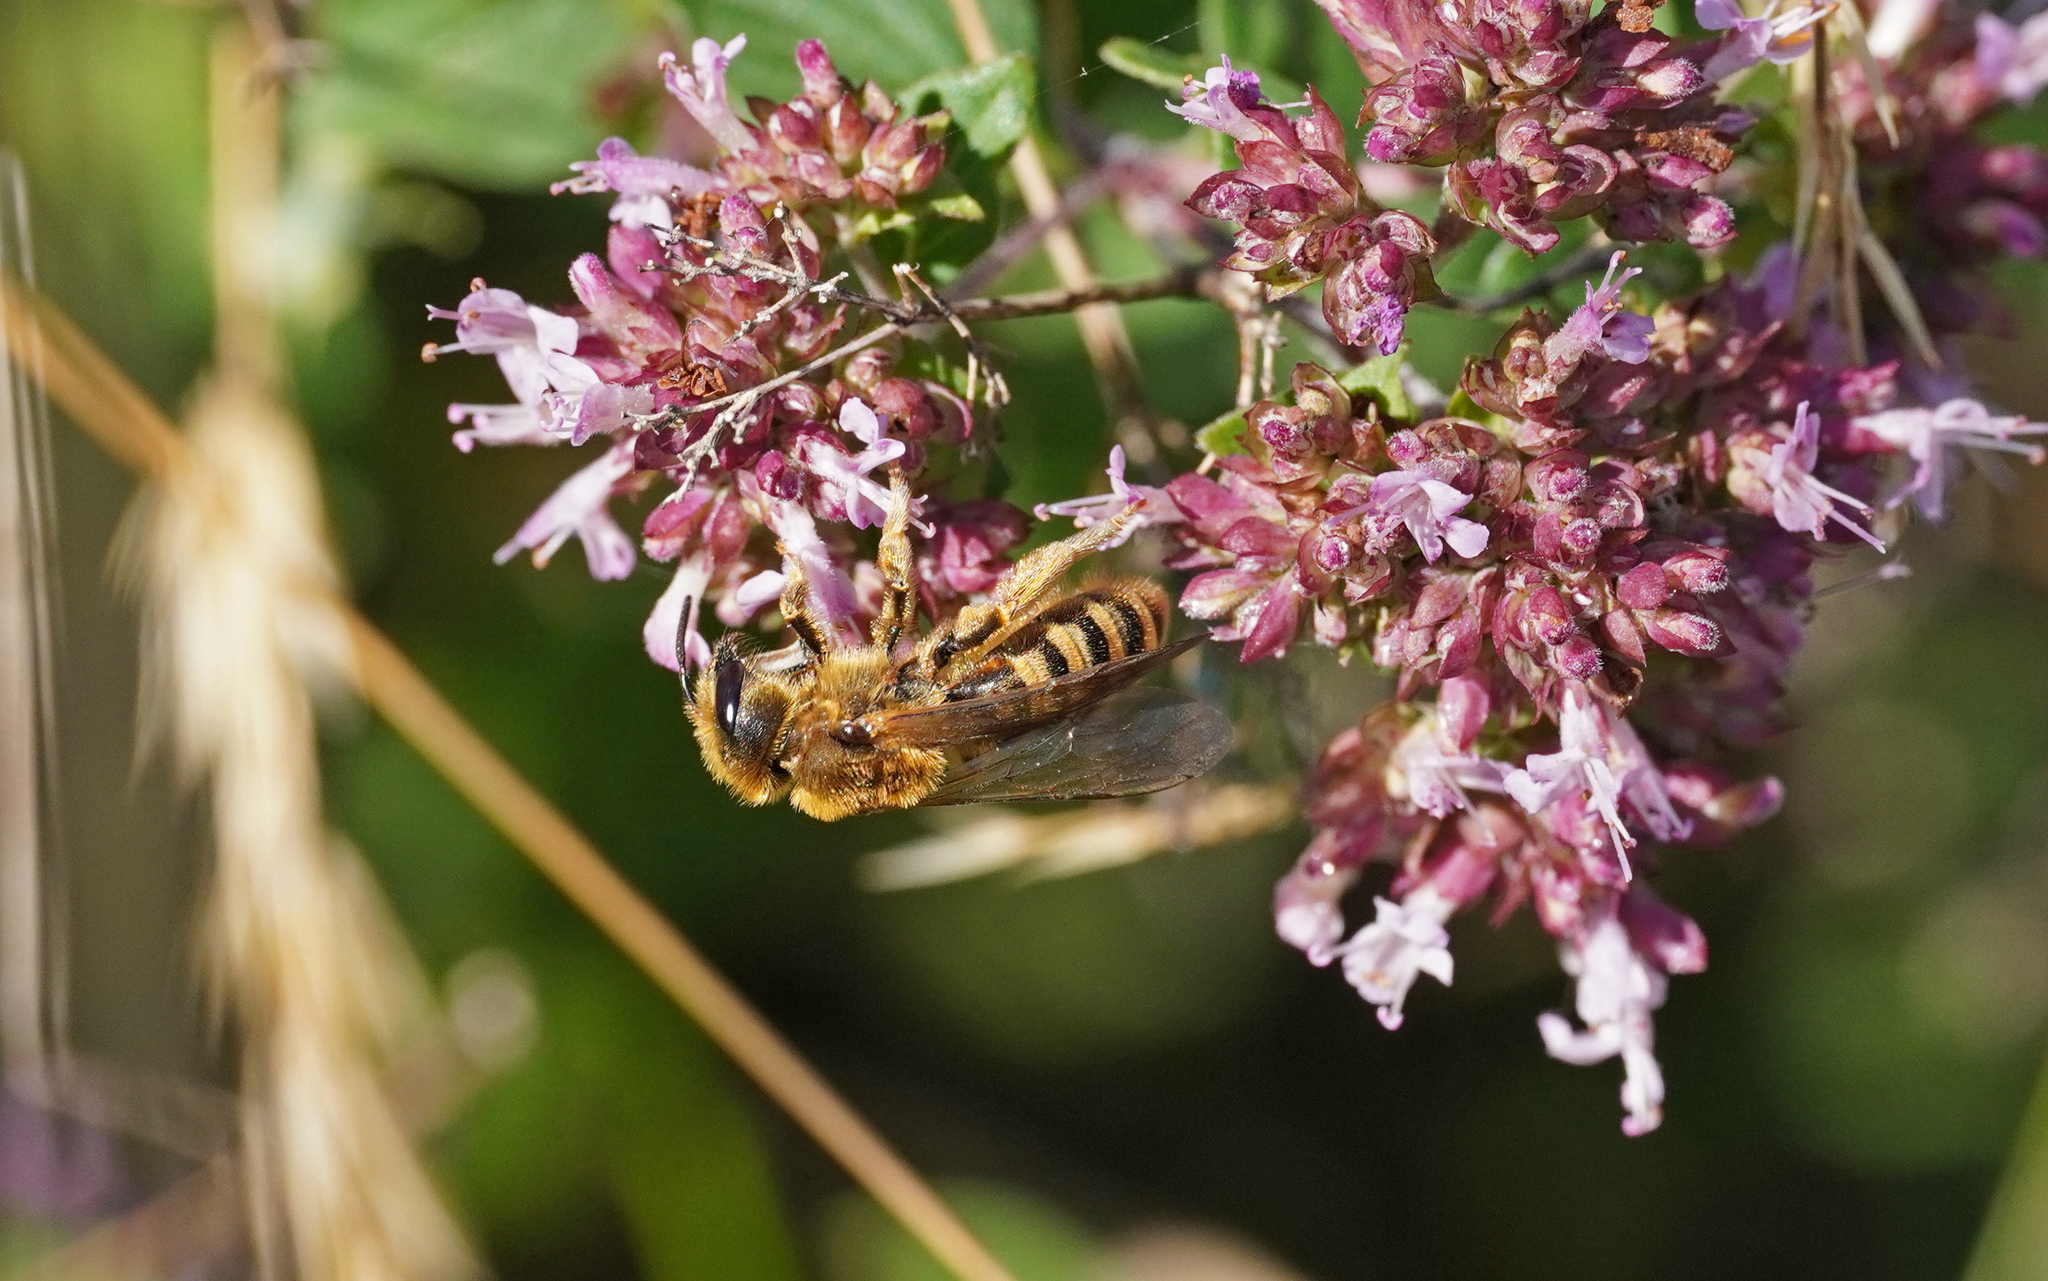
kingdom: Animalia
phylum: Arthropoda
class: Insecta
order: Hymenoptera
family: Halictidae
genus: Halictus
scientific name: Halictus scabiosae
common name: Great banded furrow bee
